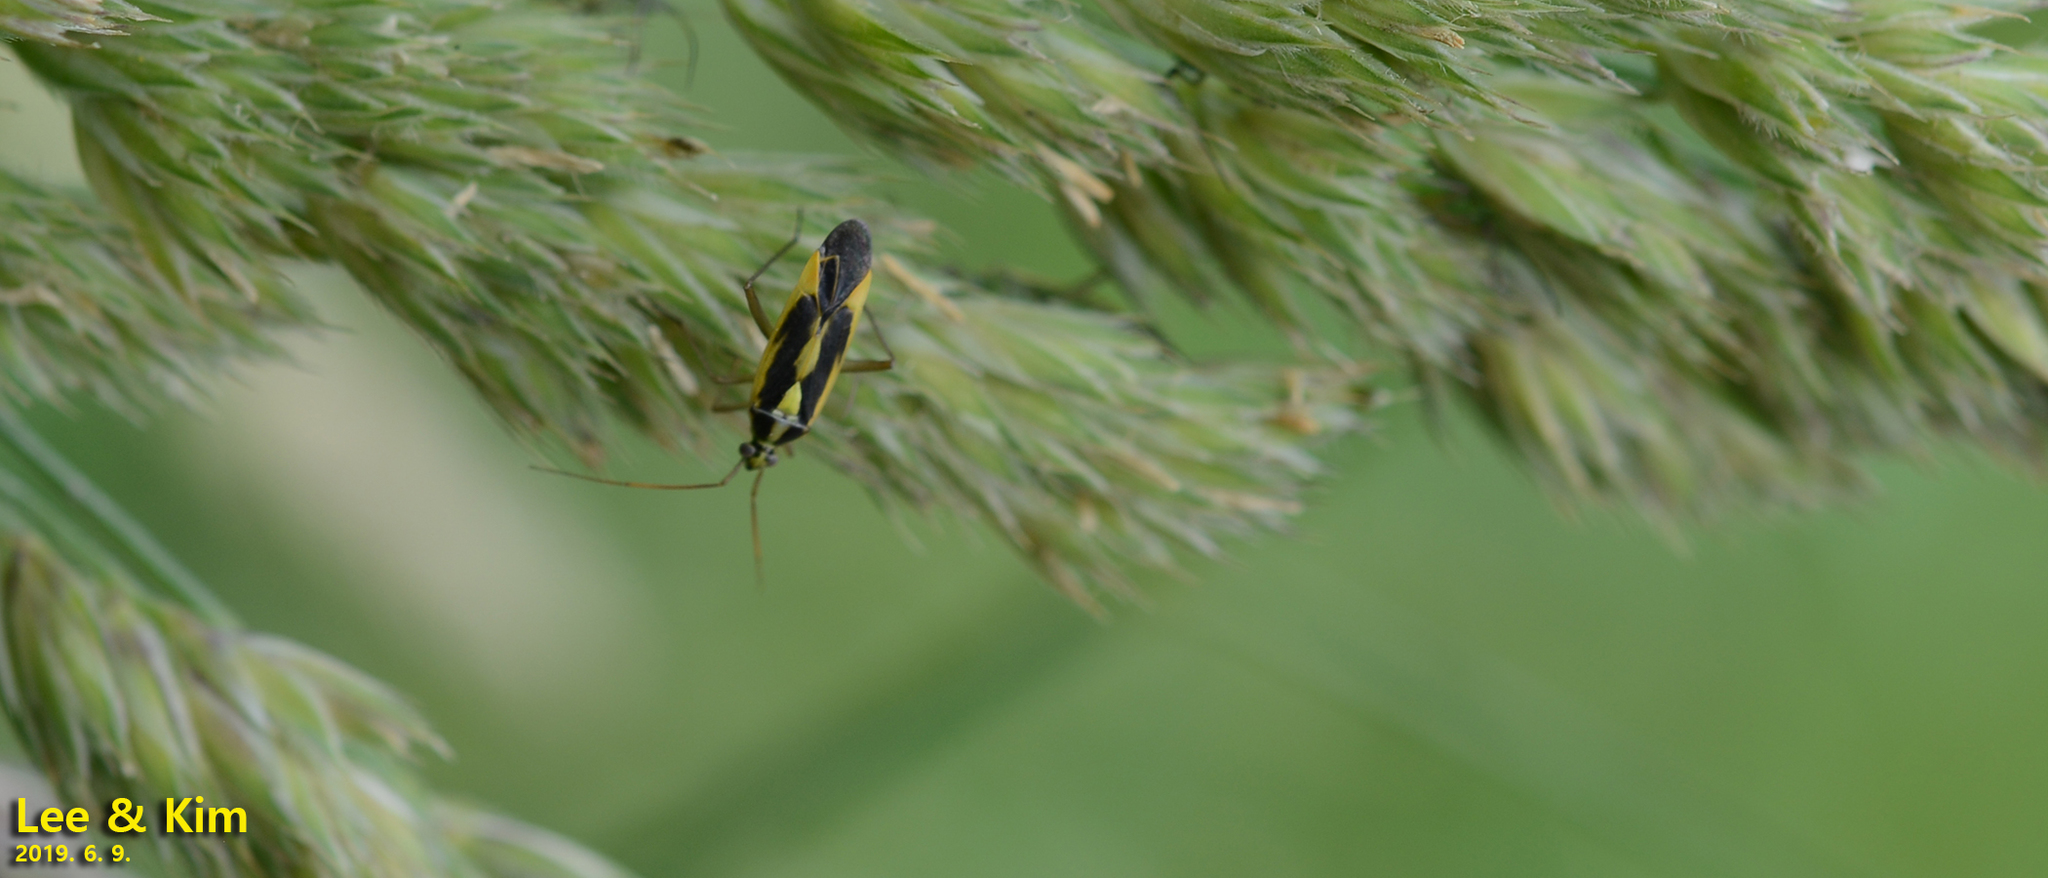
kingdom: Animalia
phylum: Arthropoda
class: Insecta
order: Hemiptera
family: Miridae
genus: Stenotus
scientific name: Stenotus binotatus
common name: Plant bug
